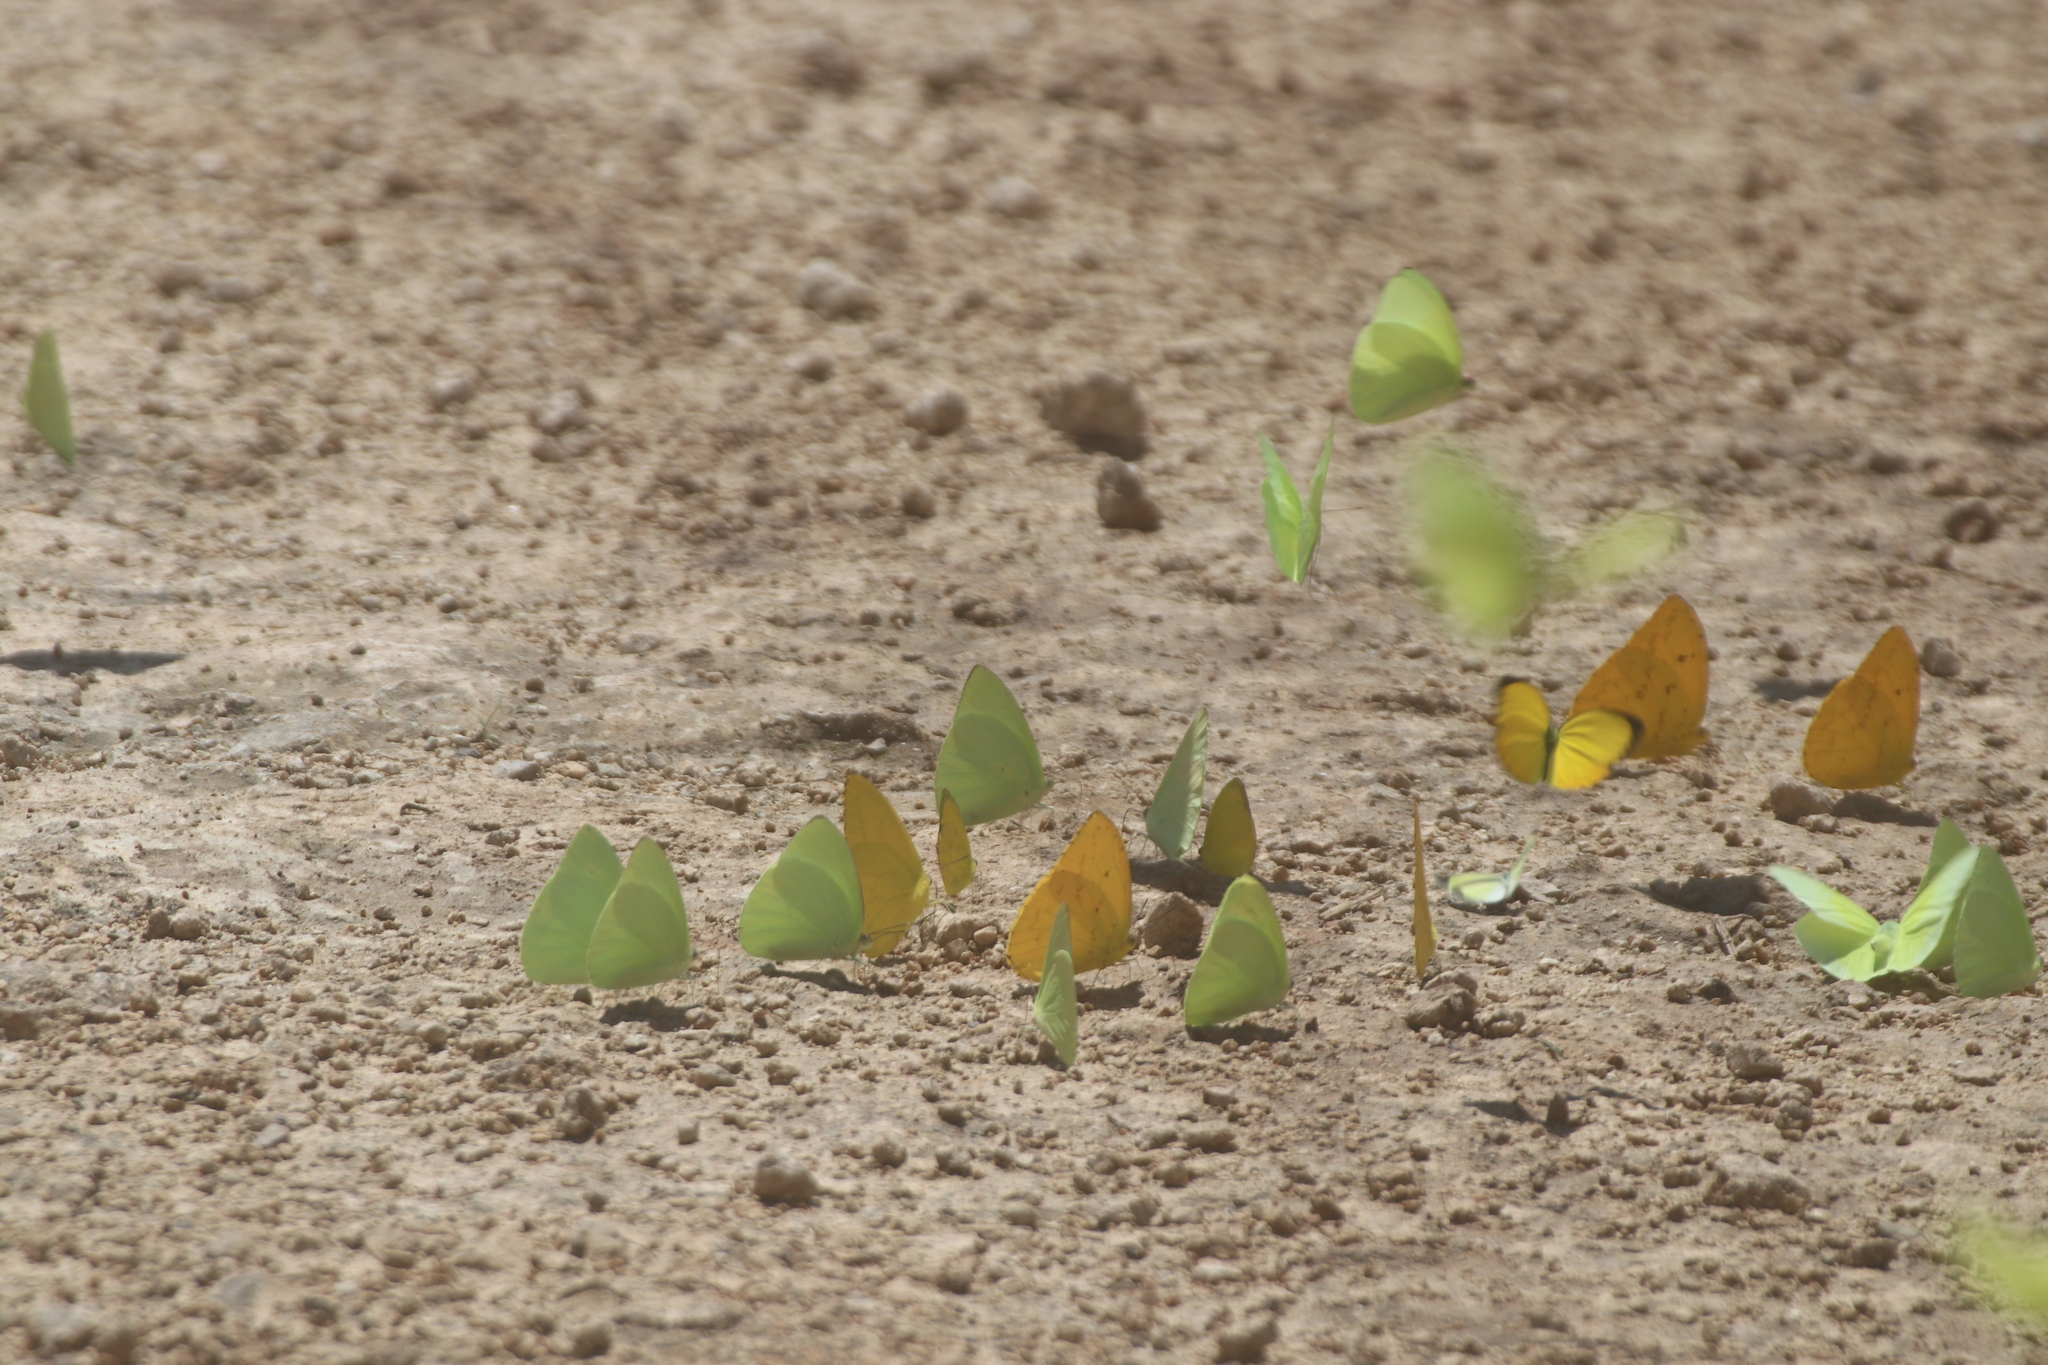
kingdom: Animalia
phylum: Arthropoda
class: Insecta
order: Lepidoptera
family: Pieridae
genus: Pyrisitia
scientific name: Pyrisitia westwoodi
